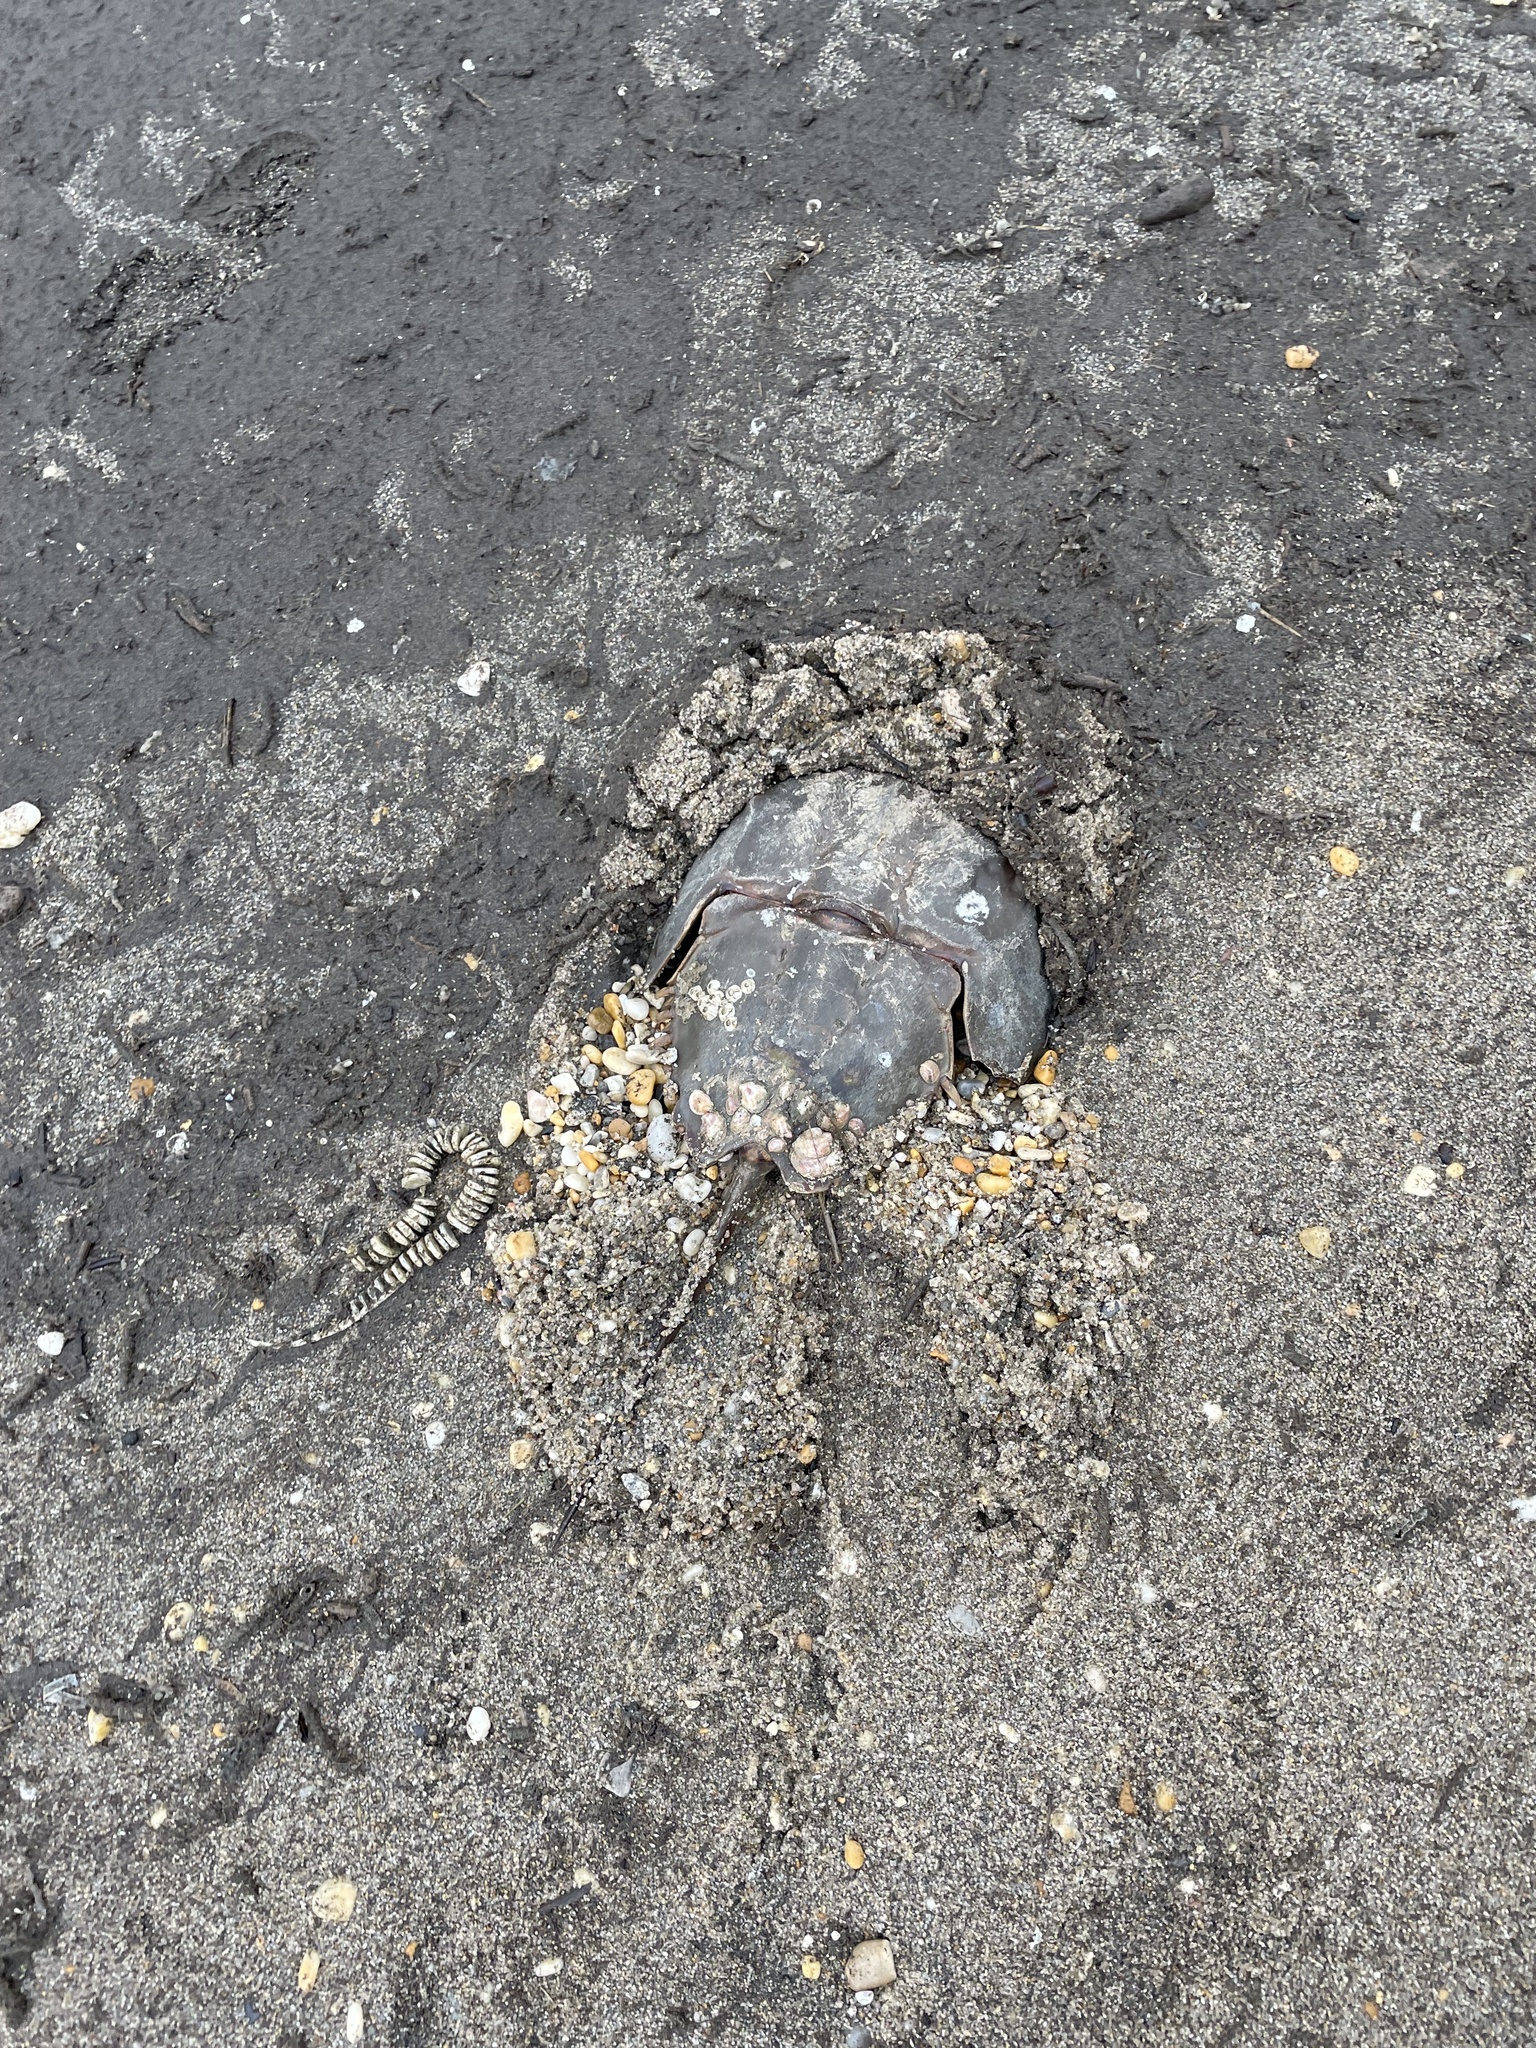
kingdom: Animalia
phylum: Arthropoda
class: Merostomata
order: Xiphosurida
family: Limulidae
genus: Limulus
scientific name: Limulus polyphemus
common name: Horseshoe crab
